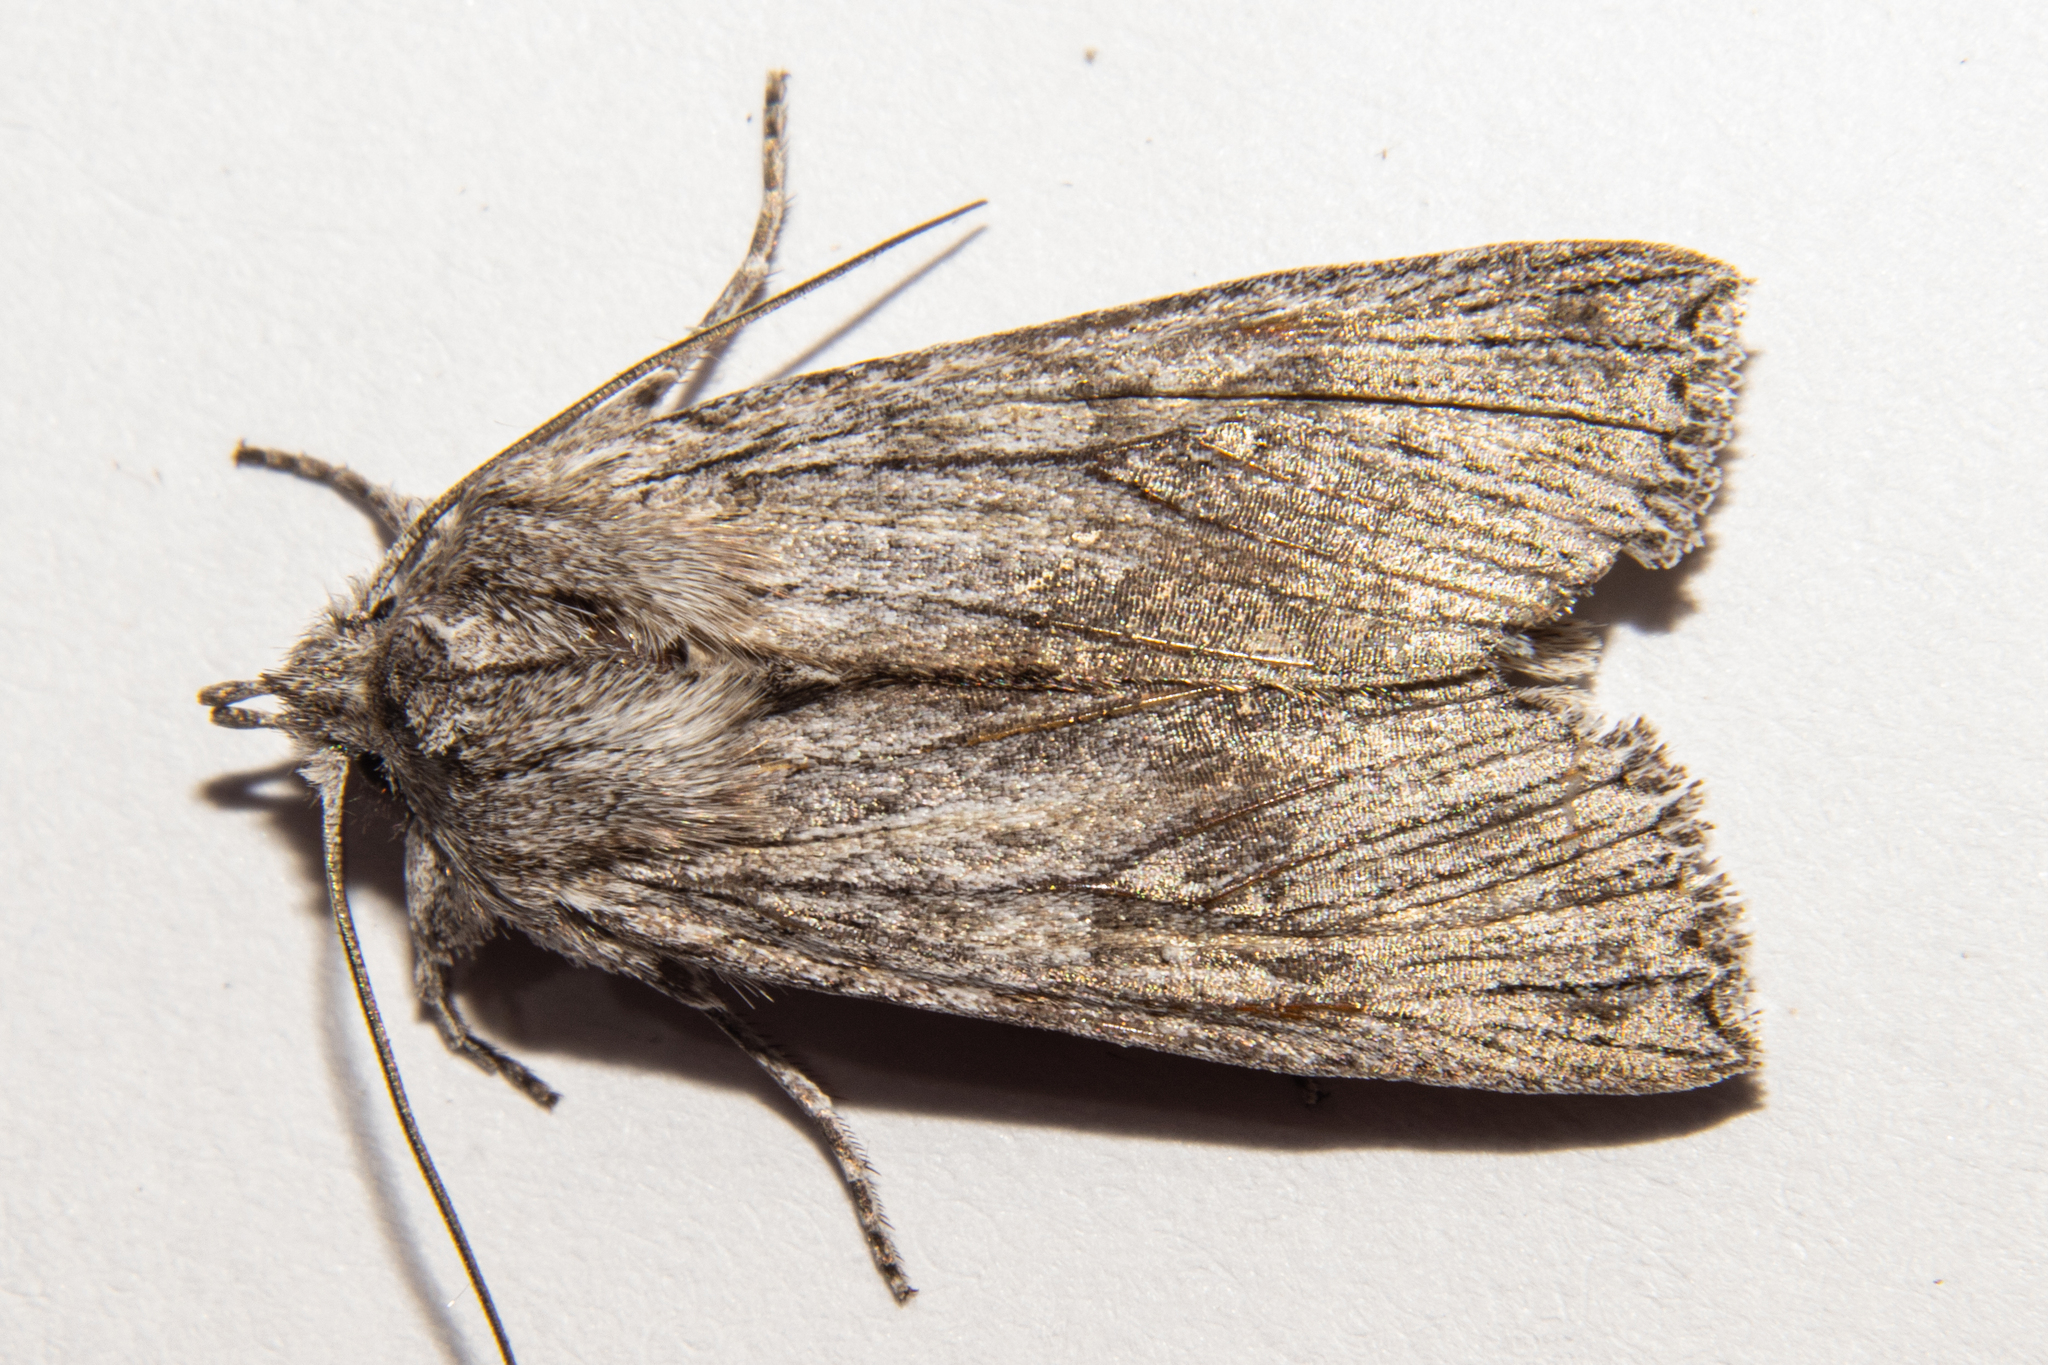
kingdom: Animalia
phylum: Arthropoda
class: Insecta
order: Lepidoptera
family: Noctuidae
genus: Physetica
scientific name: Physetica phricias
